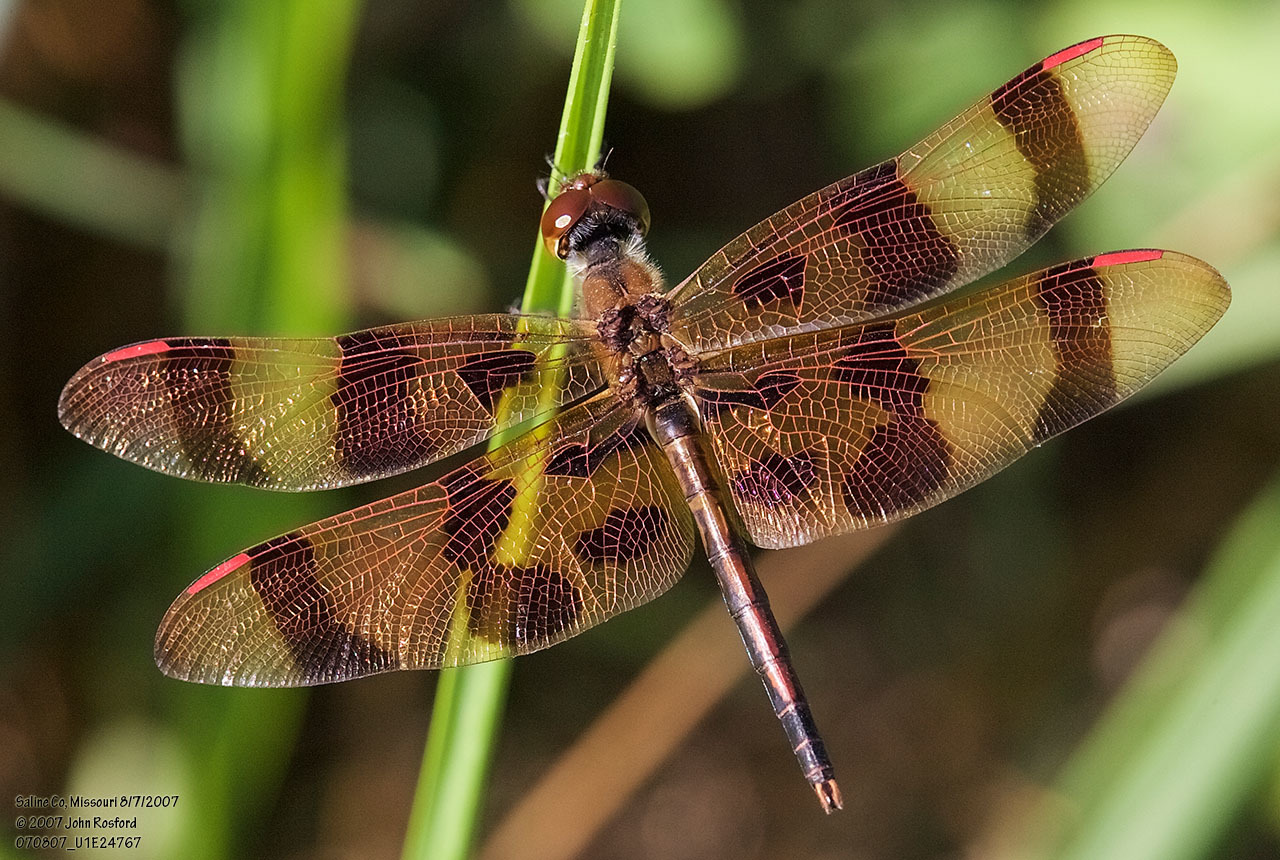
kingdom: Animalia
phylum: Arthropoda
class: Insecta
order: Odonata
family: Libellulidae
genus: Celithemis
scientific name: Celithemis eponina
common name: Halloween pennant
